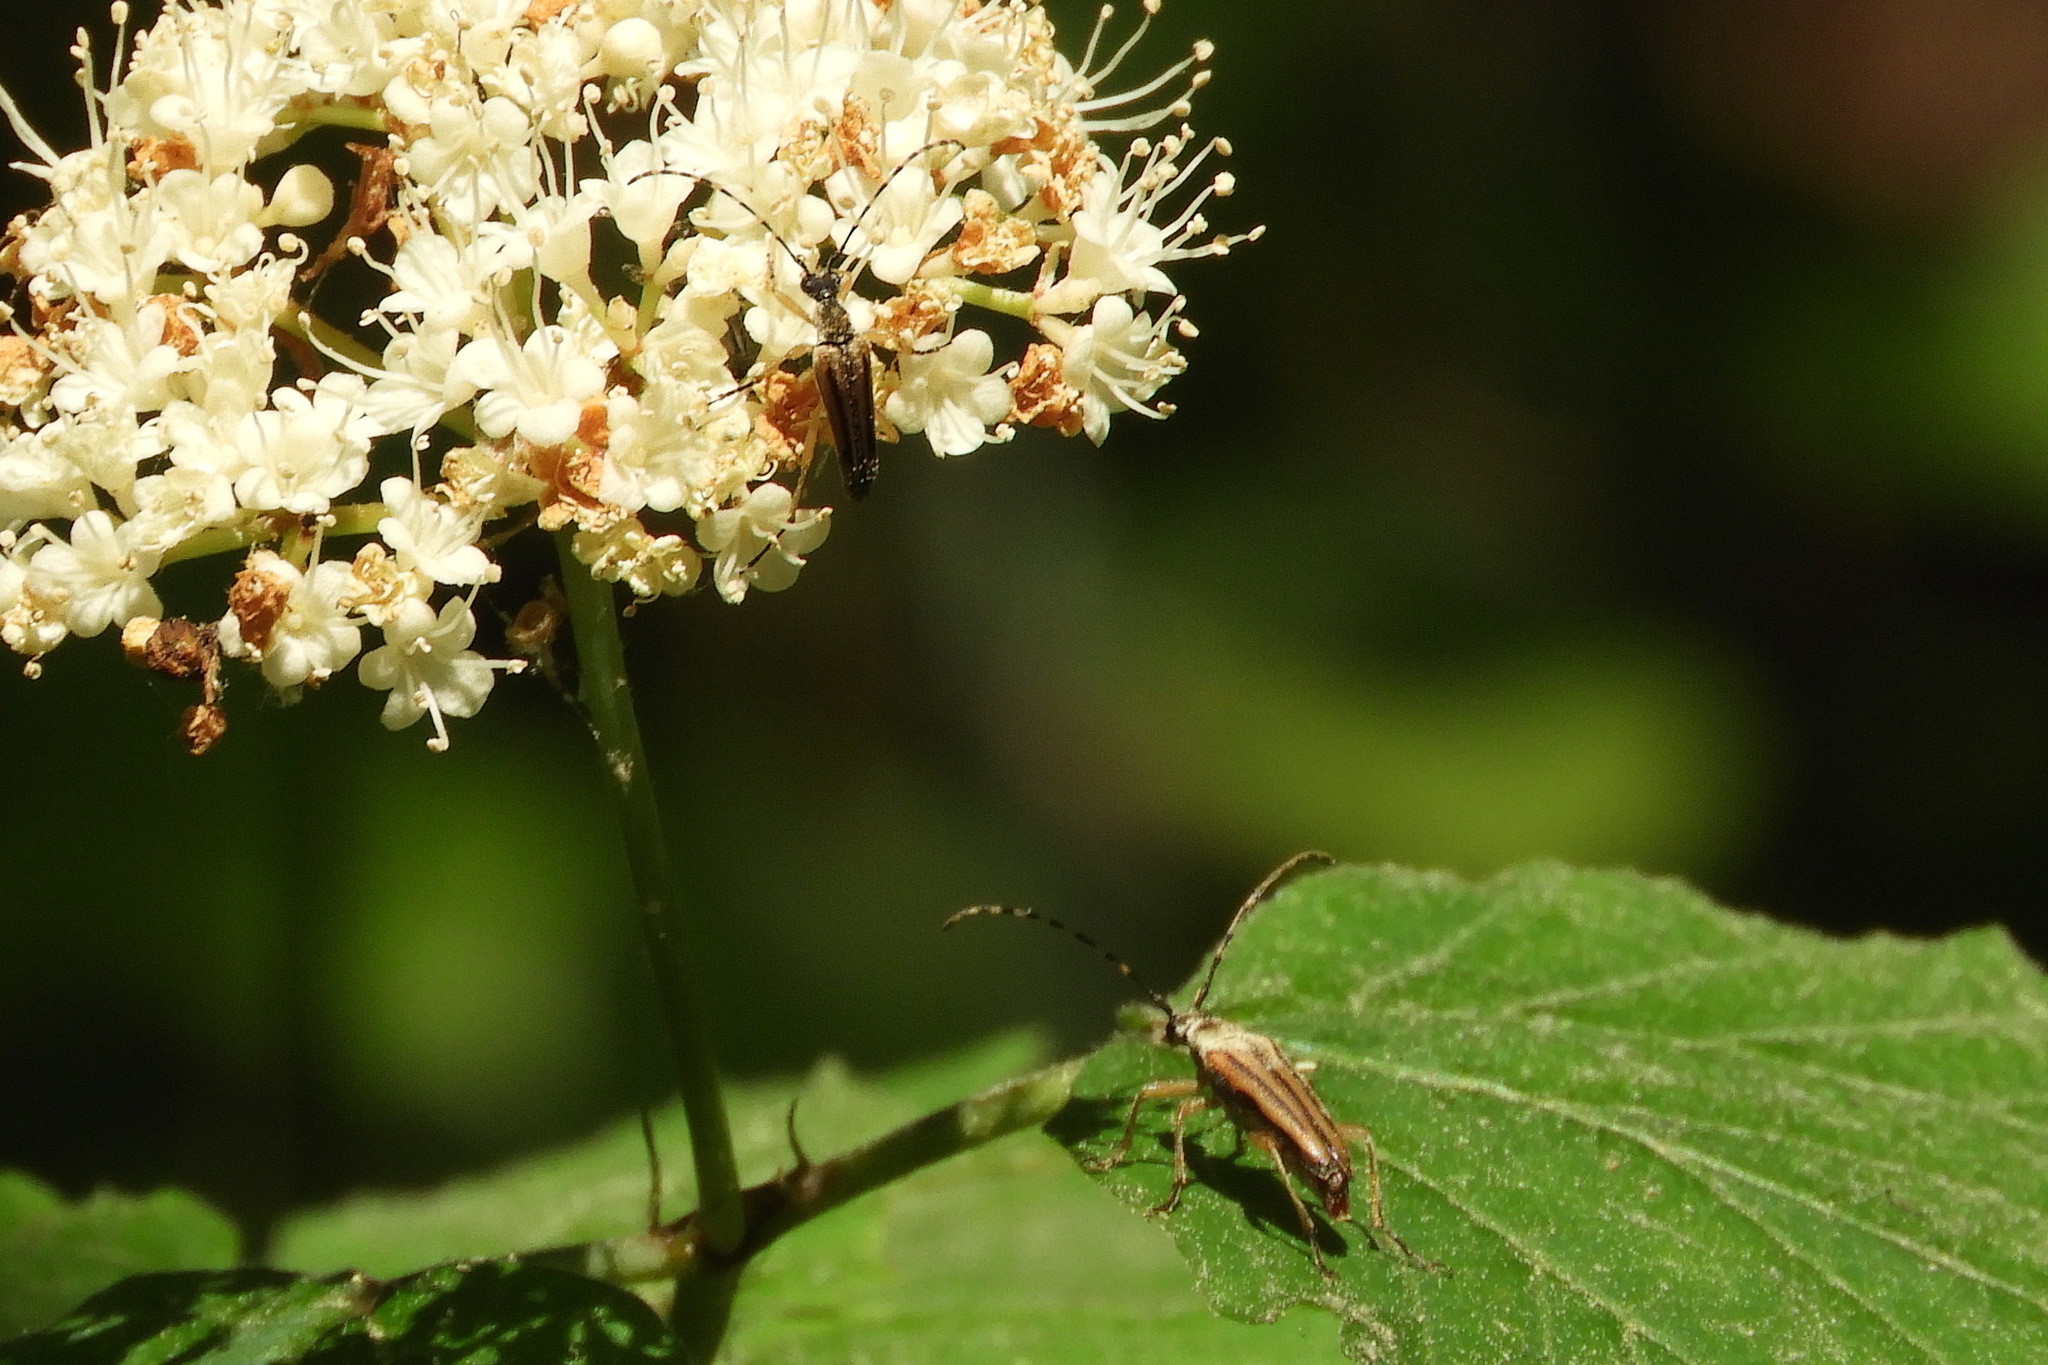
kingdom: Animalia
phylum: Arthropoda
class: Insecta
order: Coleoptera
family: Cerambycidae
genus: Analeptura
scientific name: Analeptura lineola
